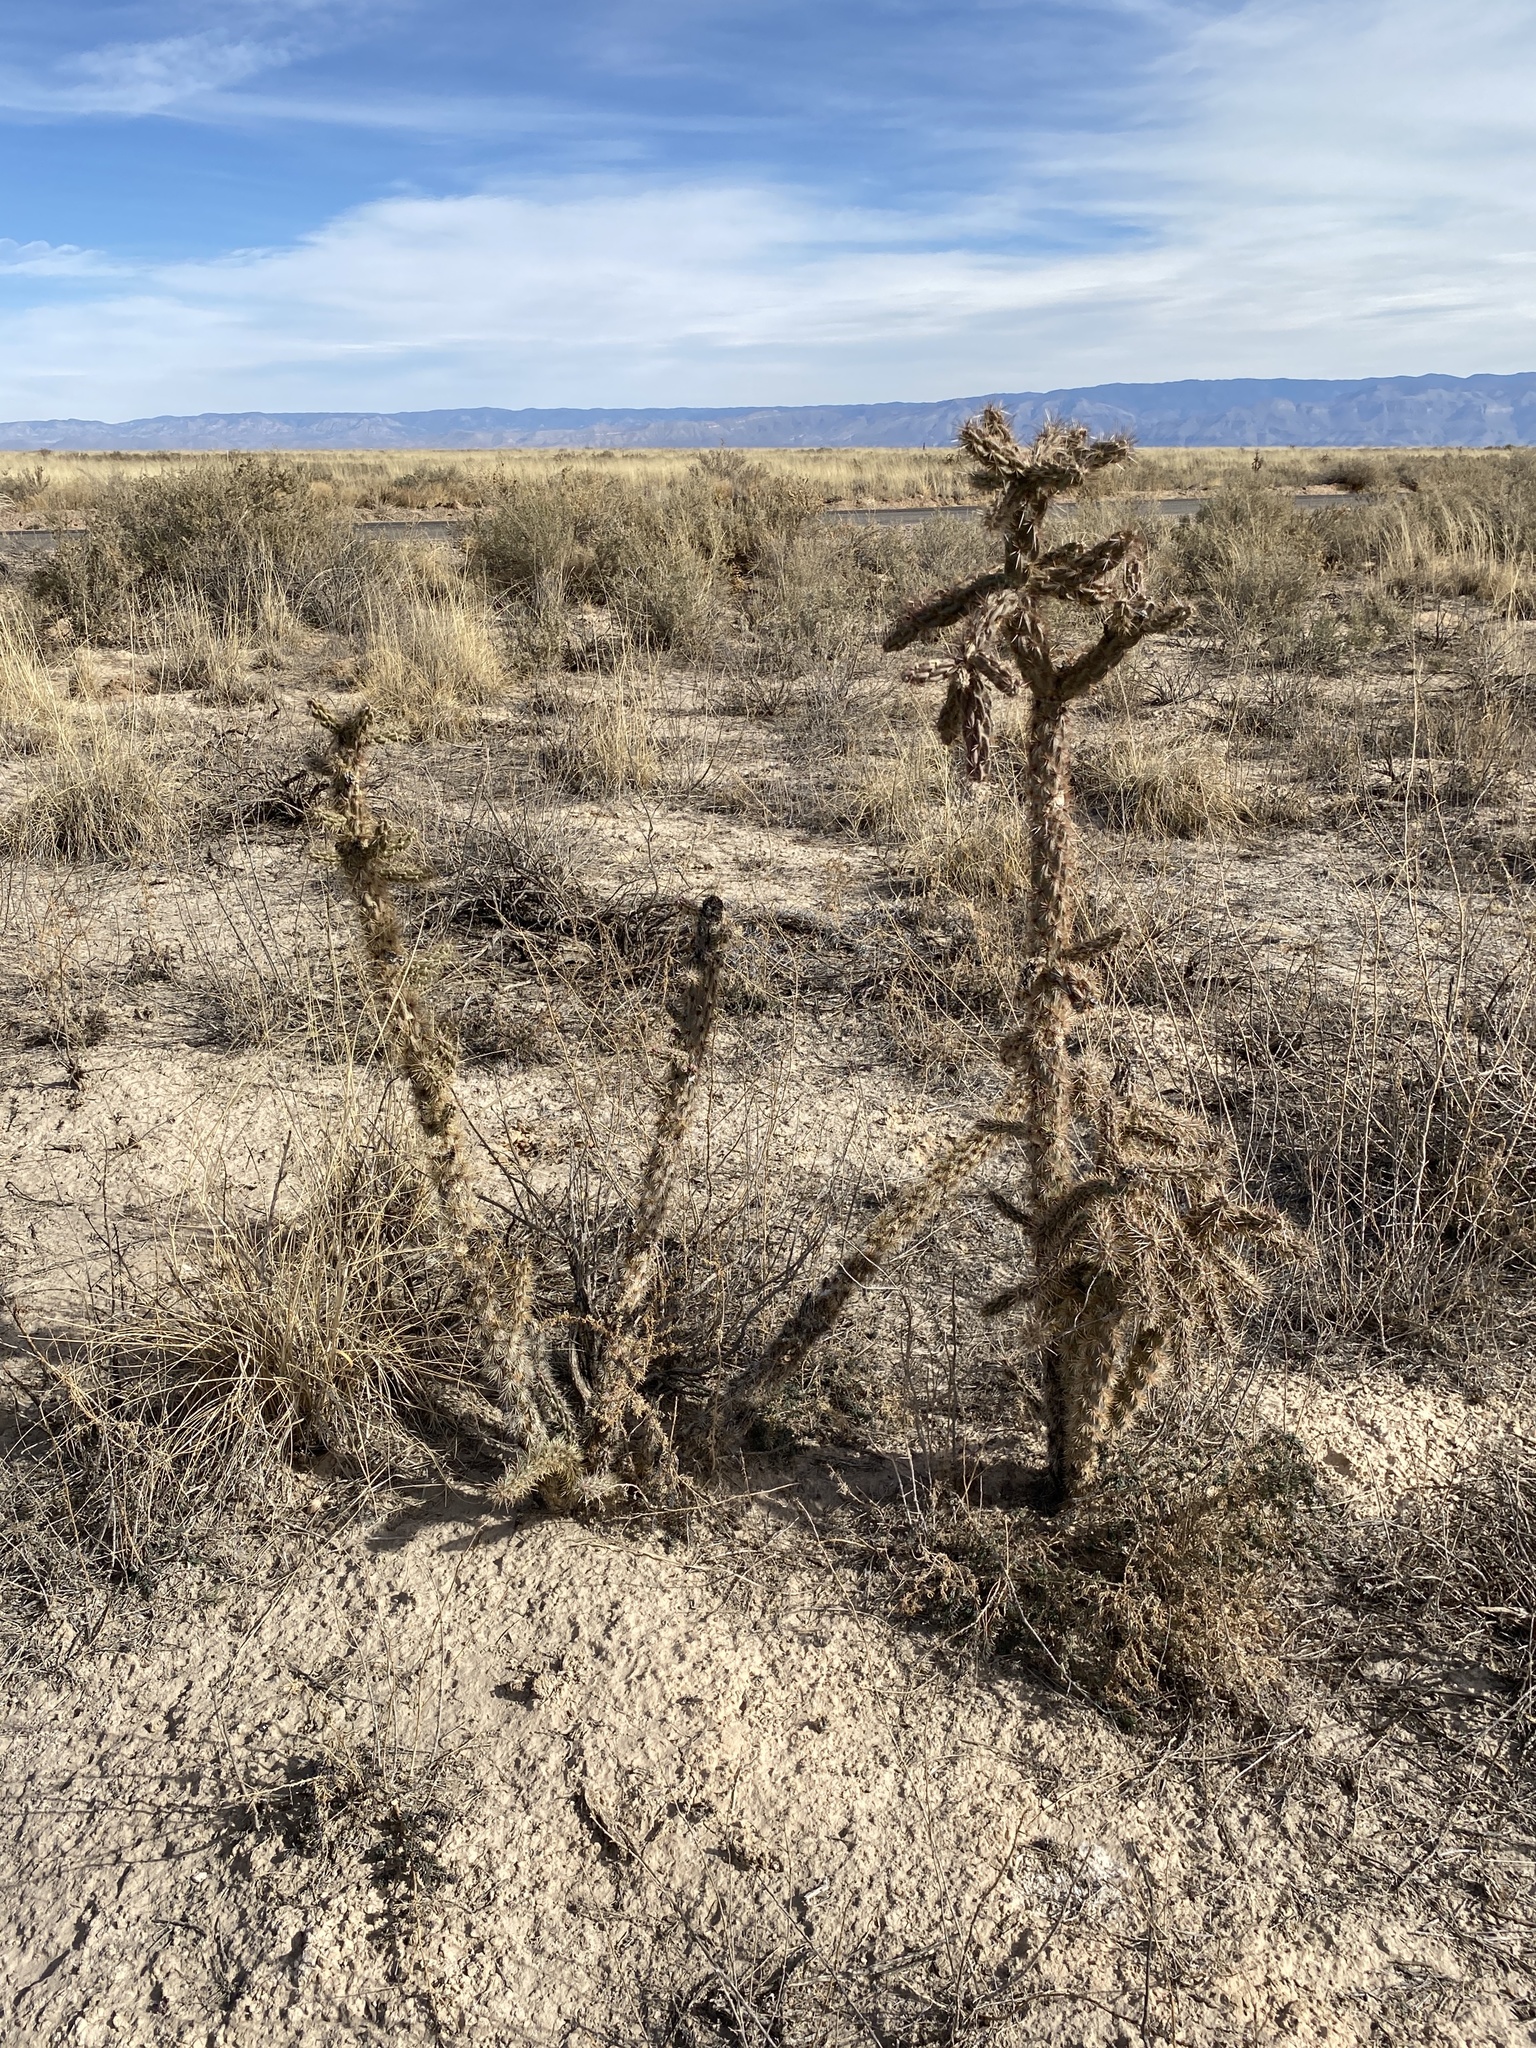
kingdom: Plantae
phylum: Tracheophyta
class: Magnoliopsida
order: Caryophyllales
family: Cactaceae
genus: Cylindropuntia
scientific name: Cylindropuntia imbricata
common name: Candelabrum cactus
